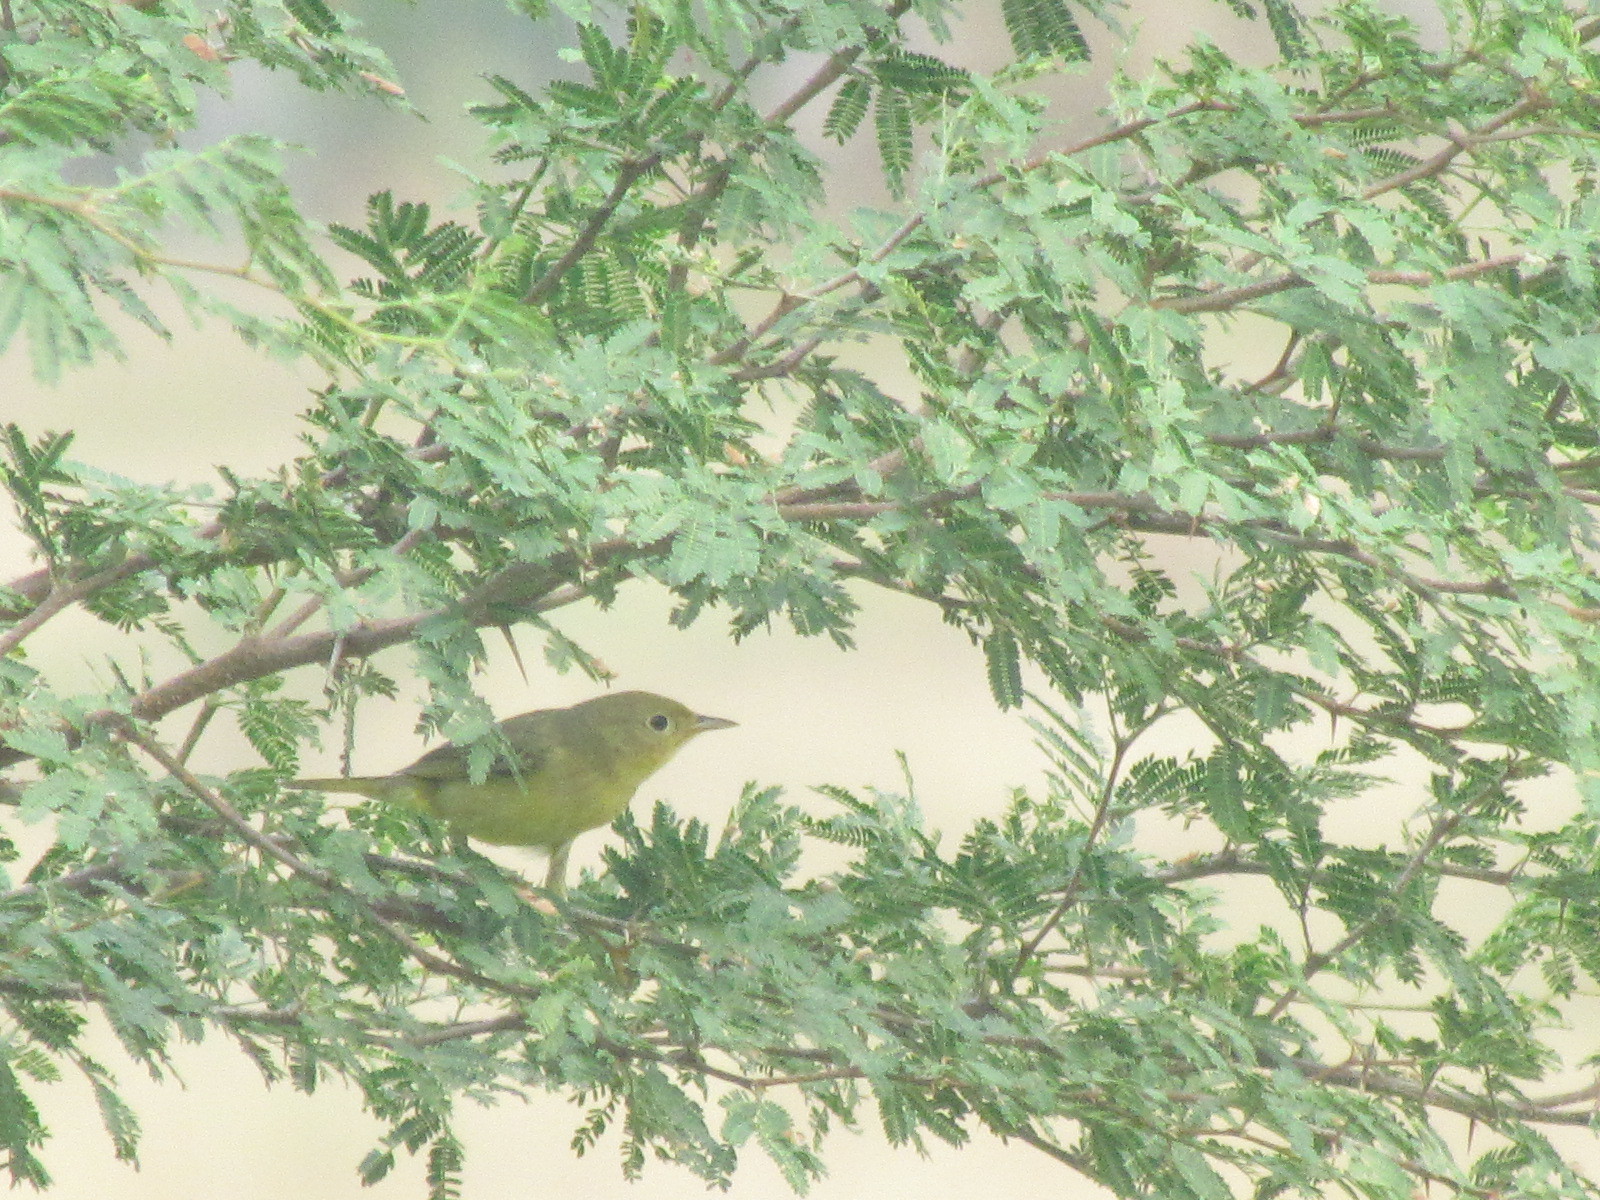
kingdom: Animalia
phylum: Chordata
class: Aves
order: Passeriformes
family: Parulidae
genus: Setophaga
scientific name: Setophaga petechia
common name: Yellow warbler
